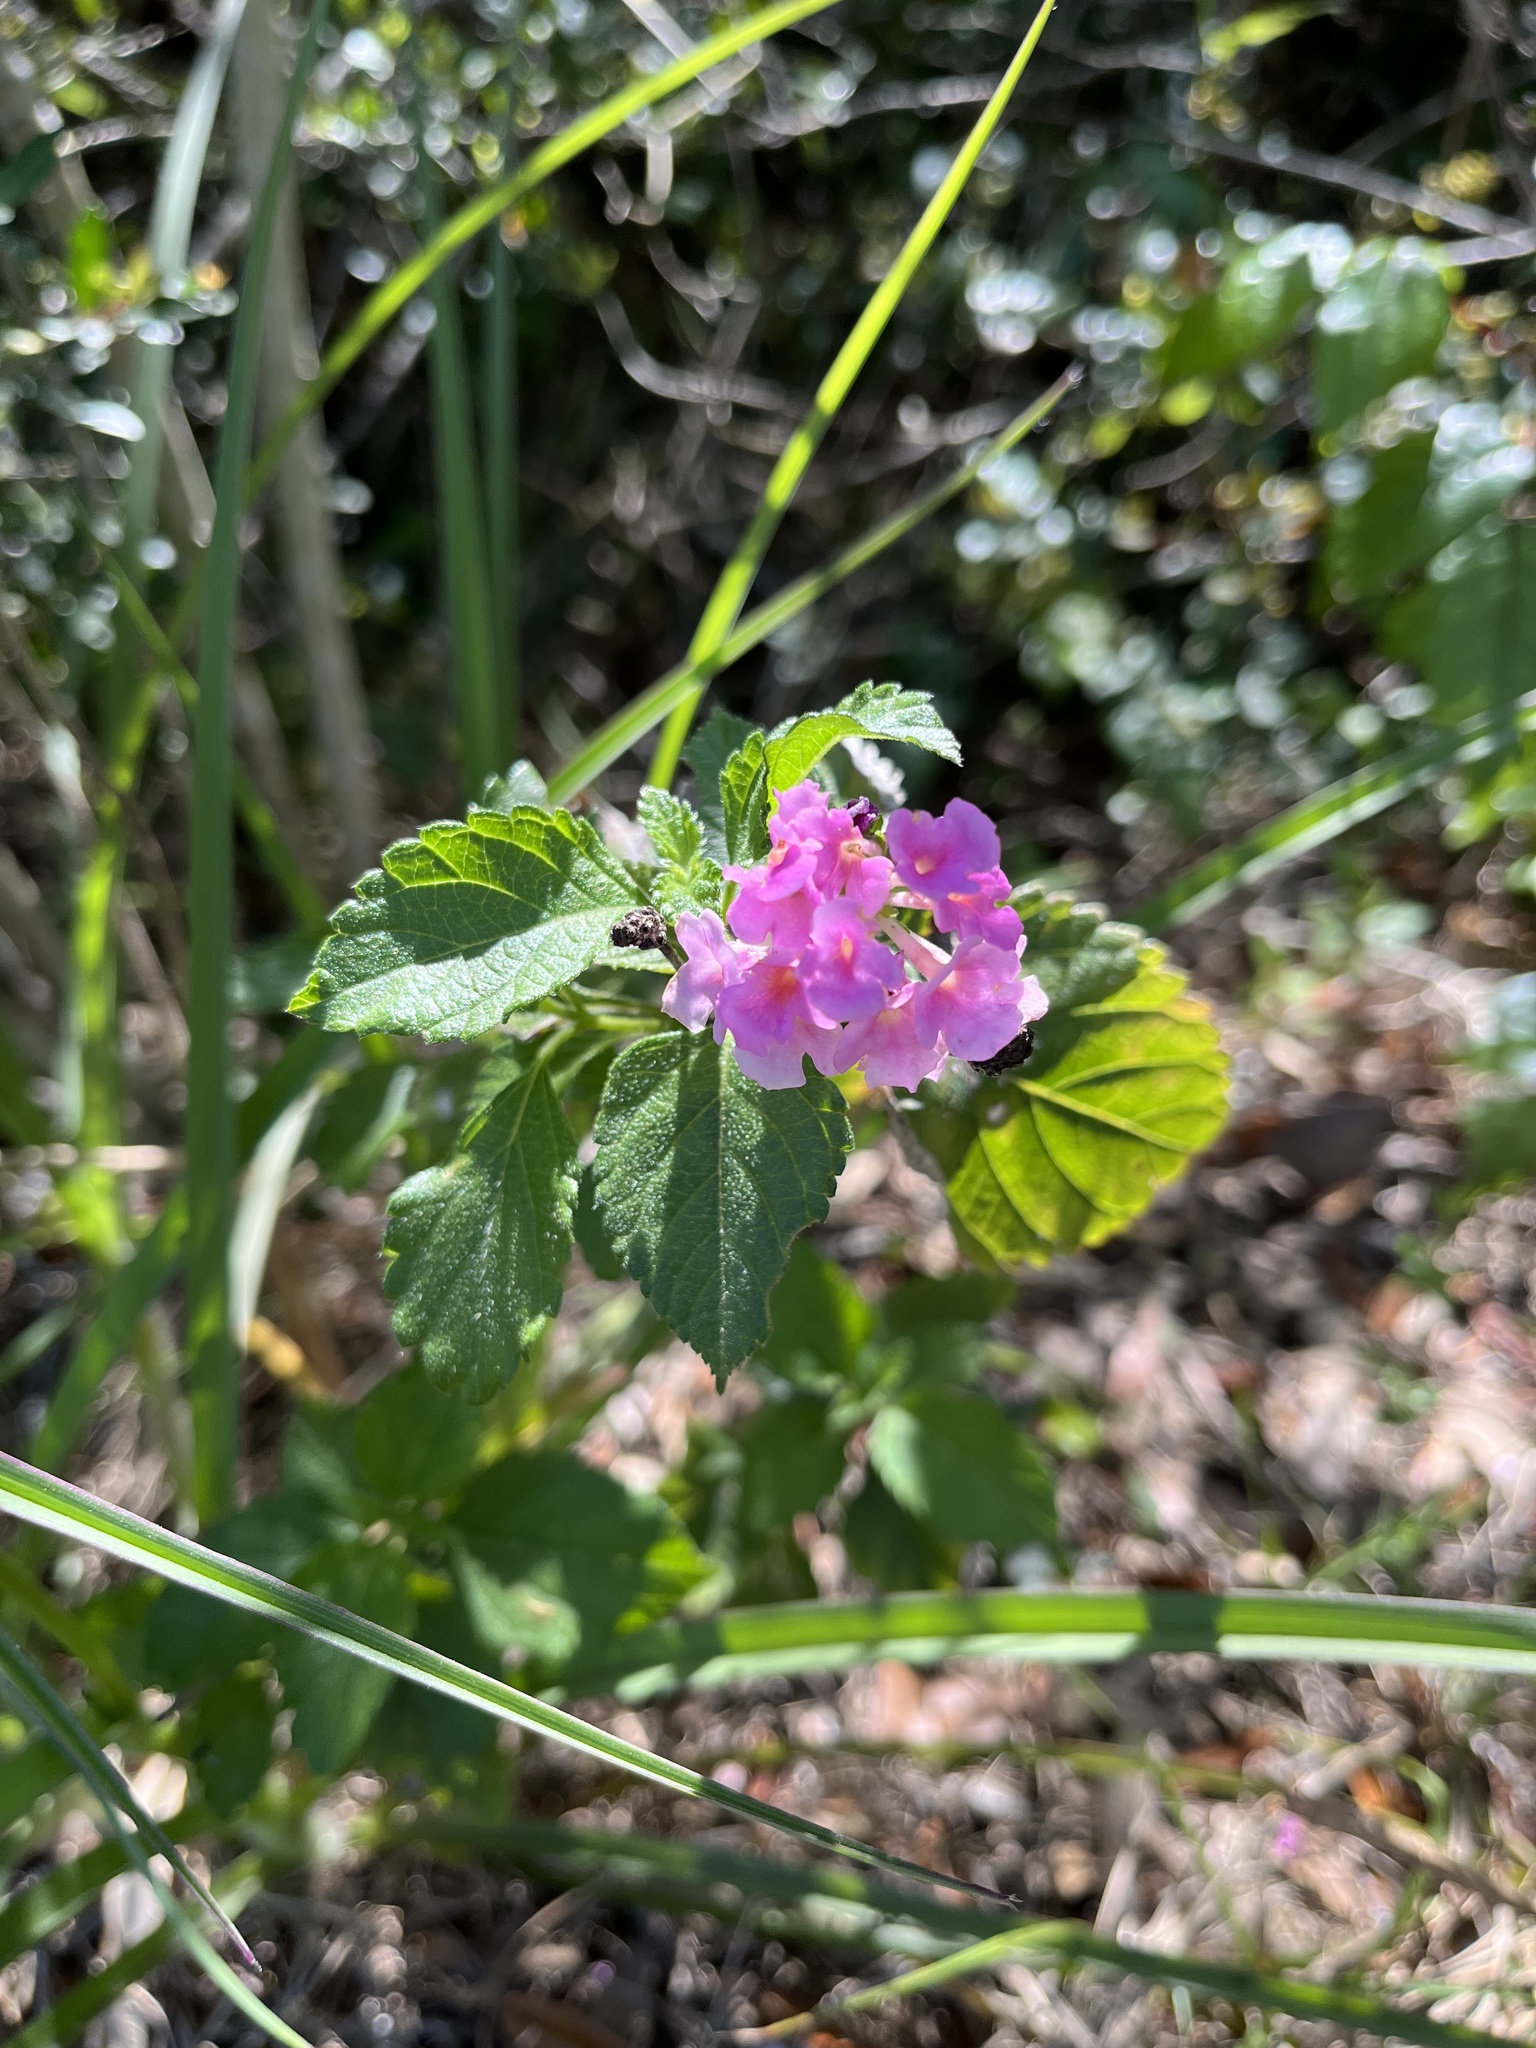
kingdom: Plantae
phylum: Tracheophyta
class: Magnoliopsida
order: Lamiales
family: Verbenaceae
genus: Lantana
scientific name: Lantana strigocamara
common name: Lantana
